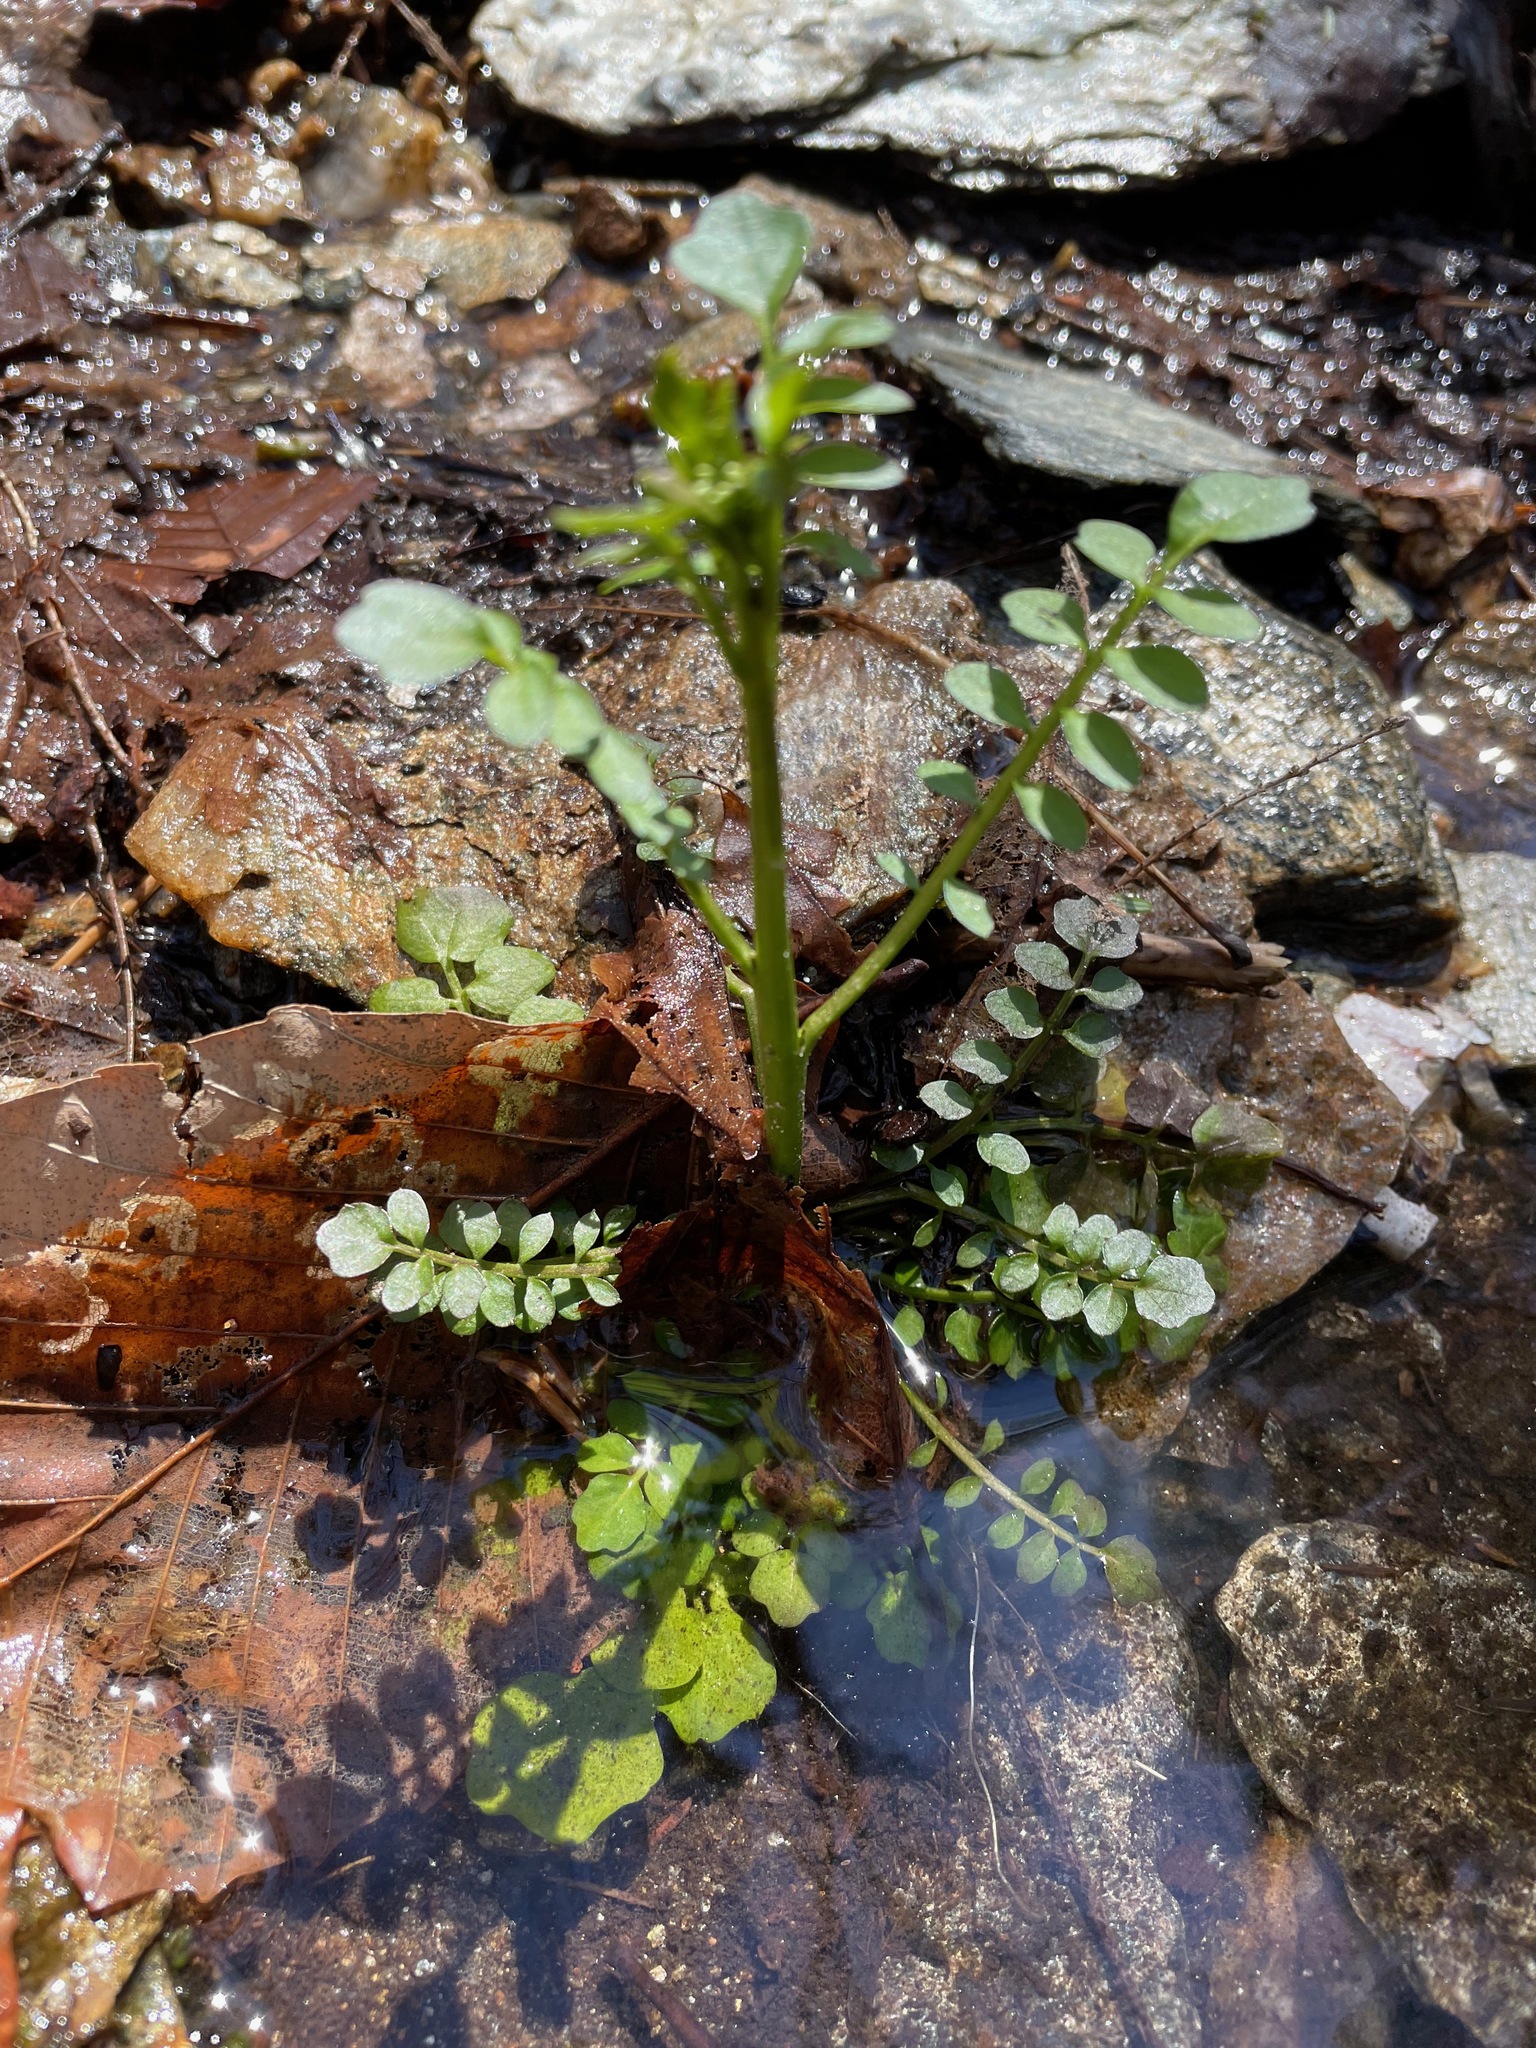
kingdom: Plantae
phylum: Tracheophyta
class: Magnoliopsida
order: Brassicales
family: Brassicaceae
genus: Cardamine
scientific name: Cardamine pensylvanica
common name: Pennsylvania bittercress
